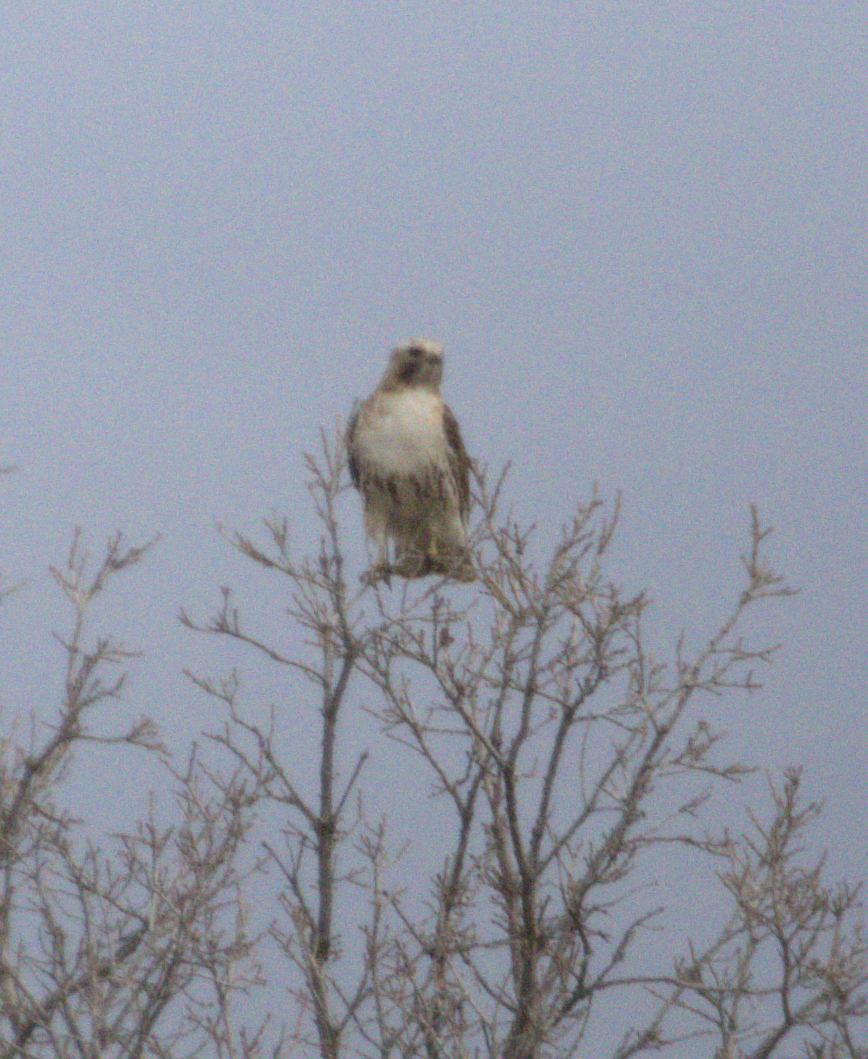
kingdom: Animalia
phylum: Chordata
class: Aves
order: Accipitriformes
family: Accipitridae
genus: Buteo
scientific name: Buteo jamaicensis
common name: Red-tailed hawk
